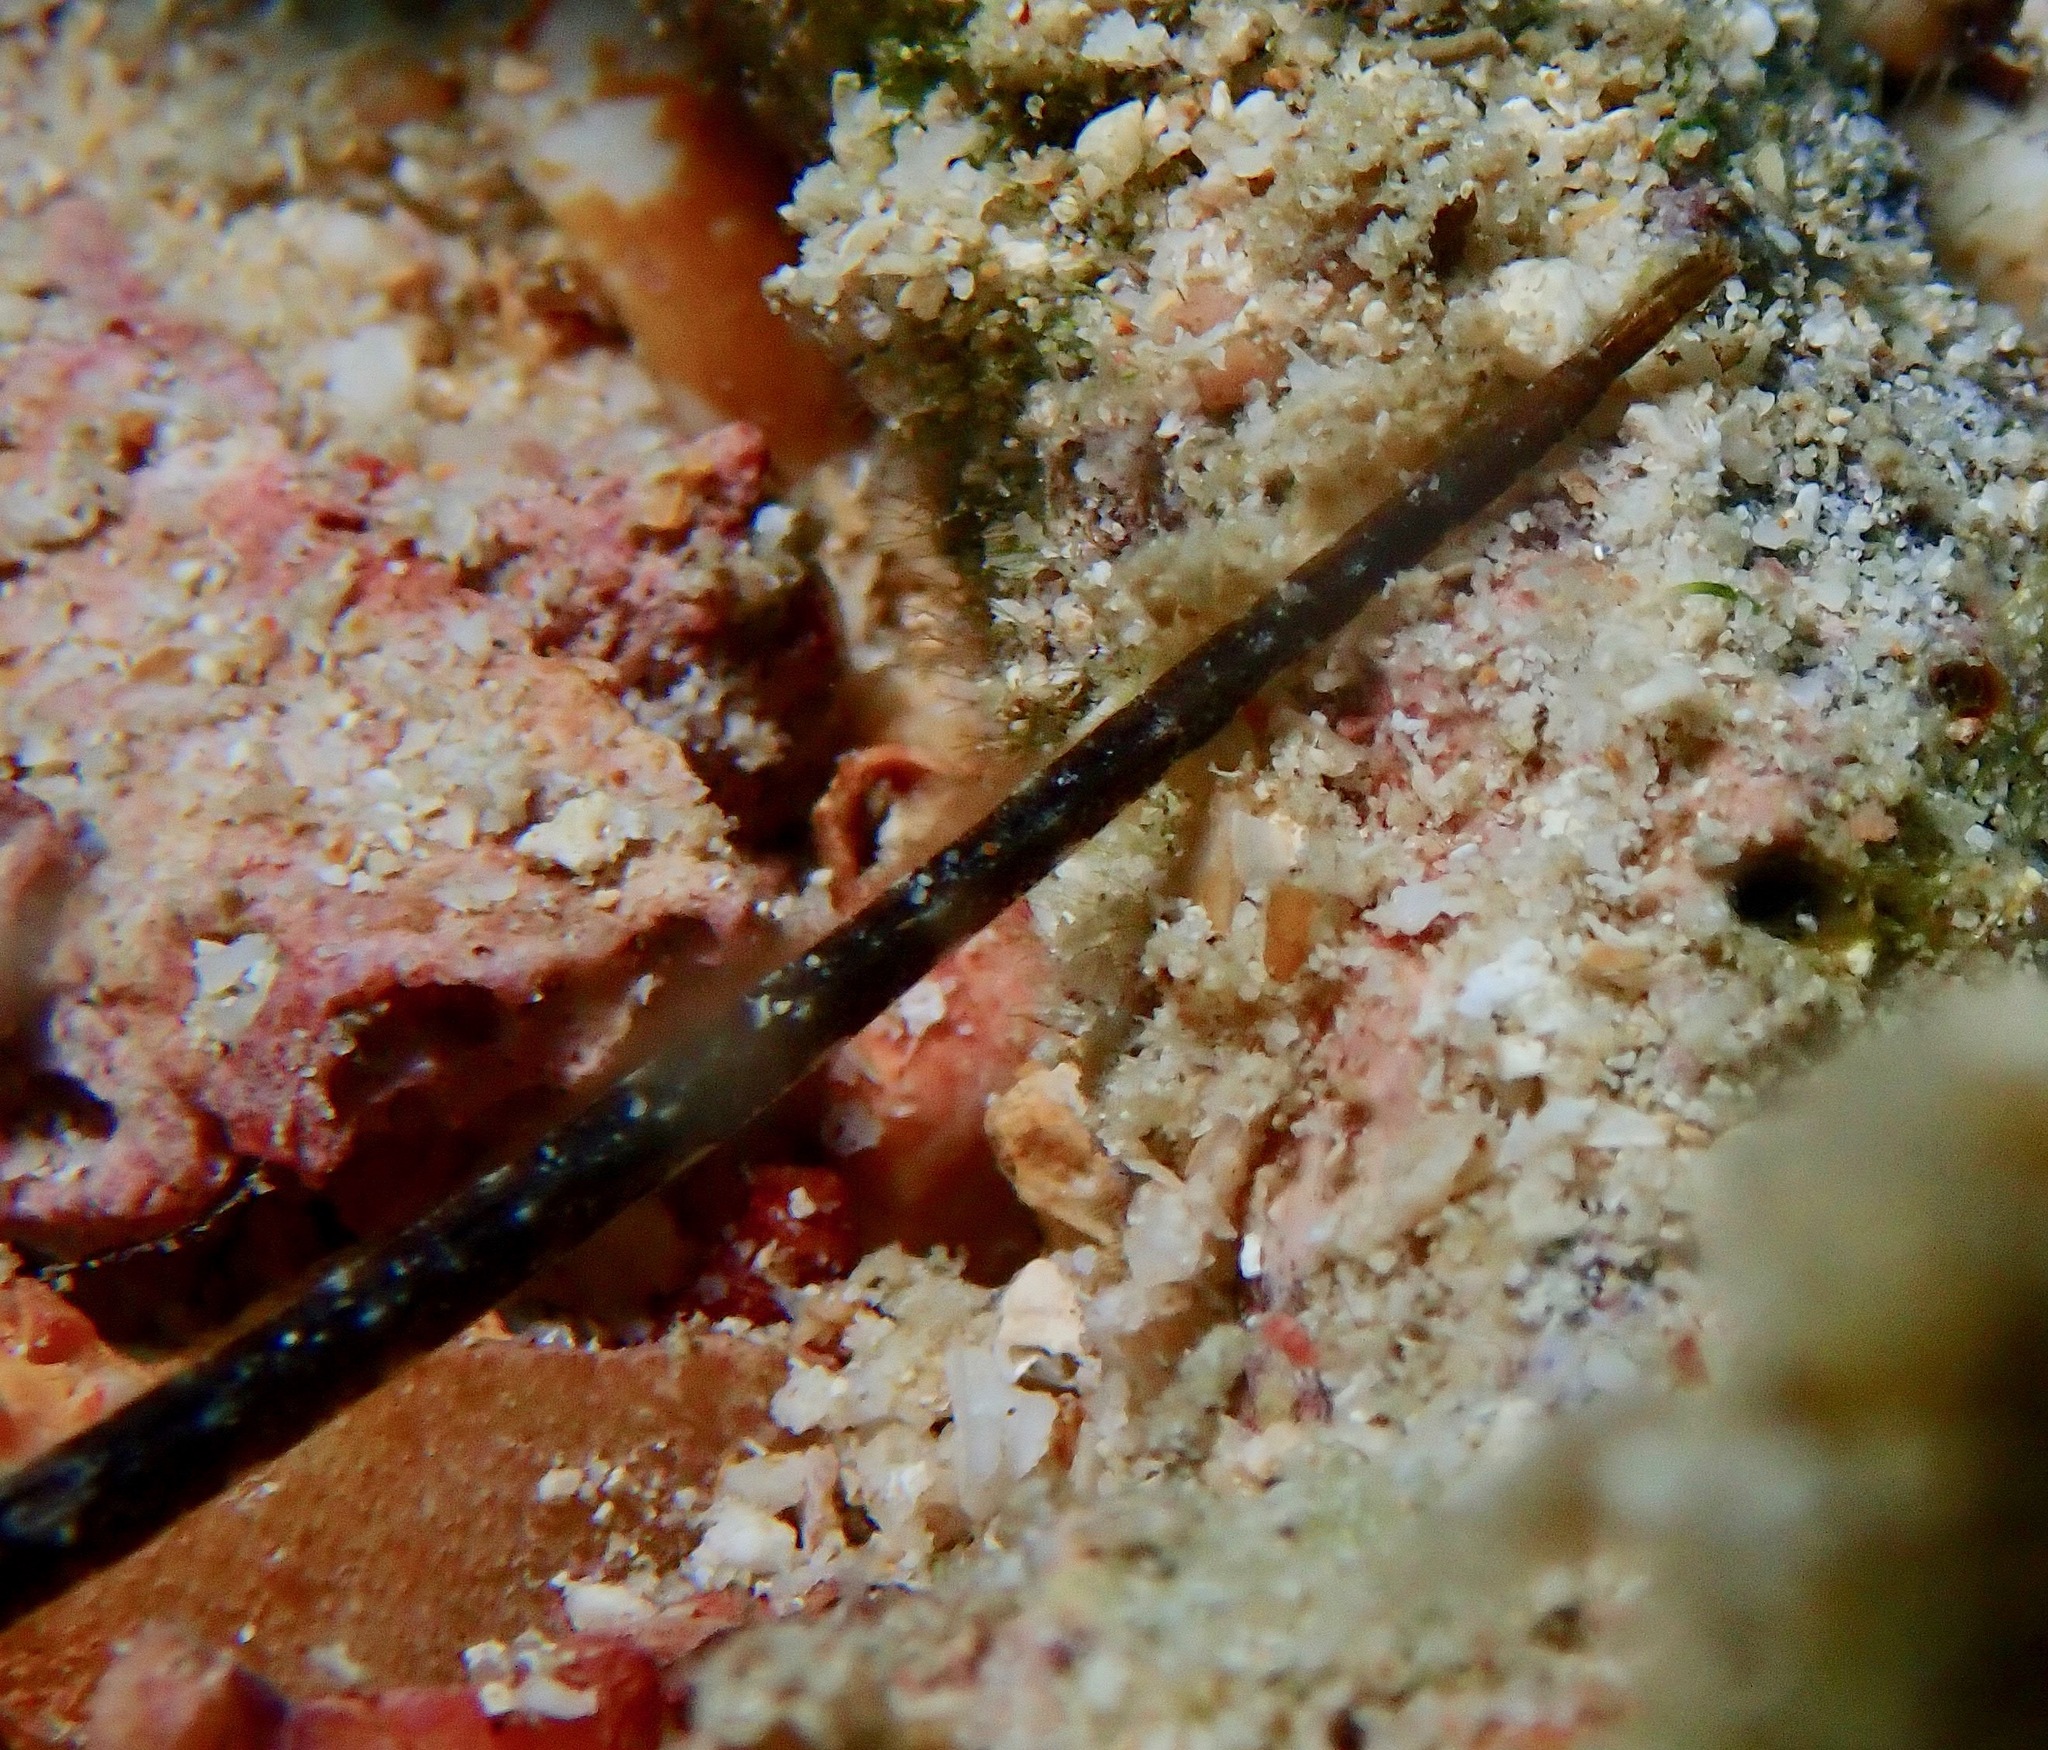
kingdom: Animalia
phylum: Chordata
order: Syngnathiformes
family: Syngnathidae
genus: Halicampus
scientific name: Halicampus dunckeri
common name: Duncker's pipefish
